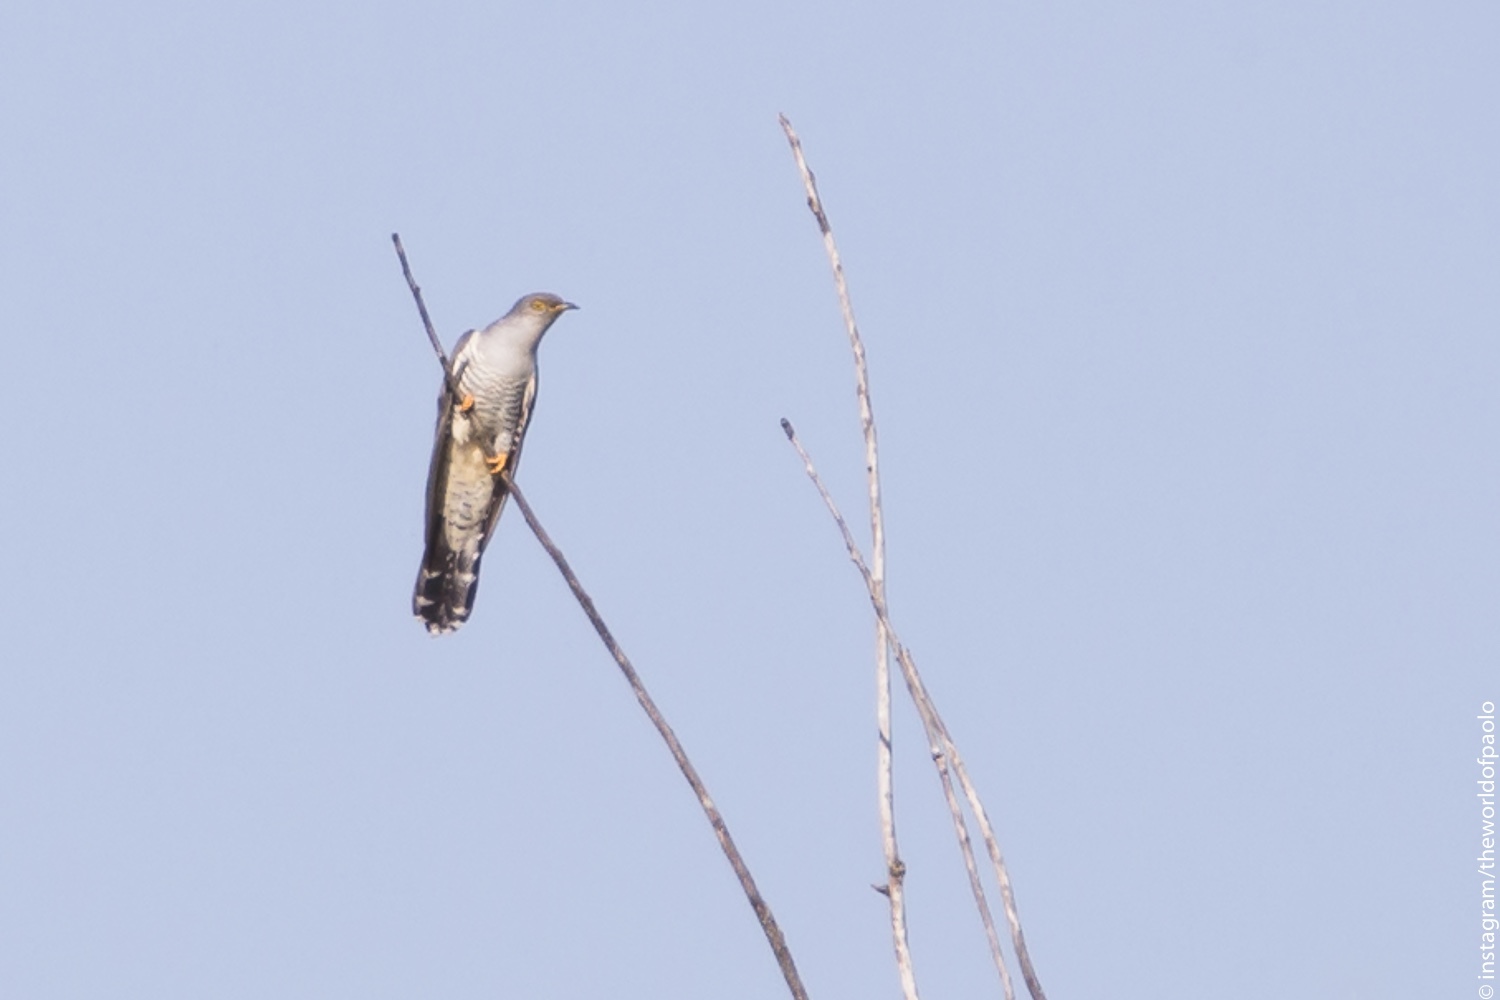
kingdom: Animalia
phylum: Chordata
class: Aves
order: Cuculiformes
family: Cuculidae
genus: Cuculus
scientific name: Cuculus canorus
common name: Common cuckoo
